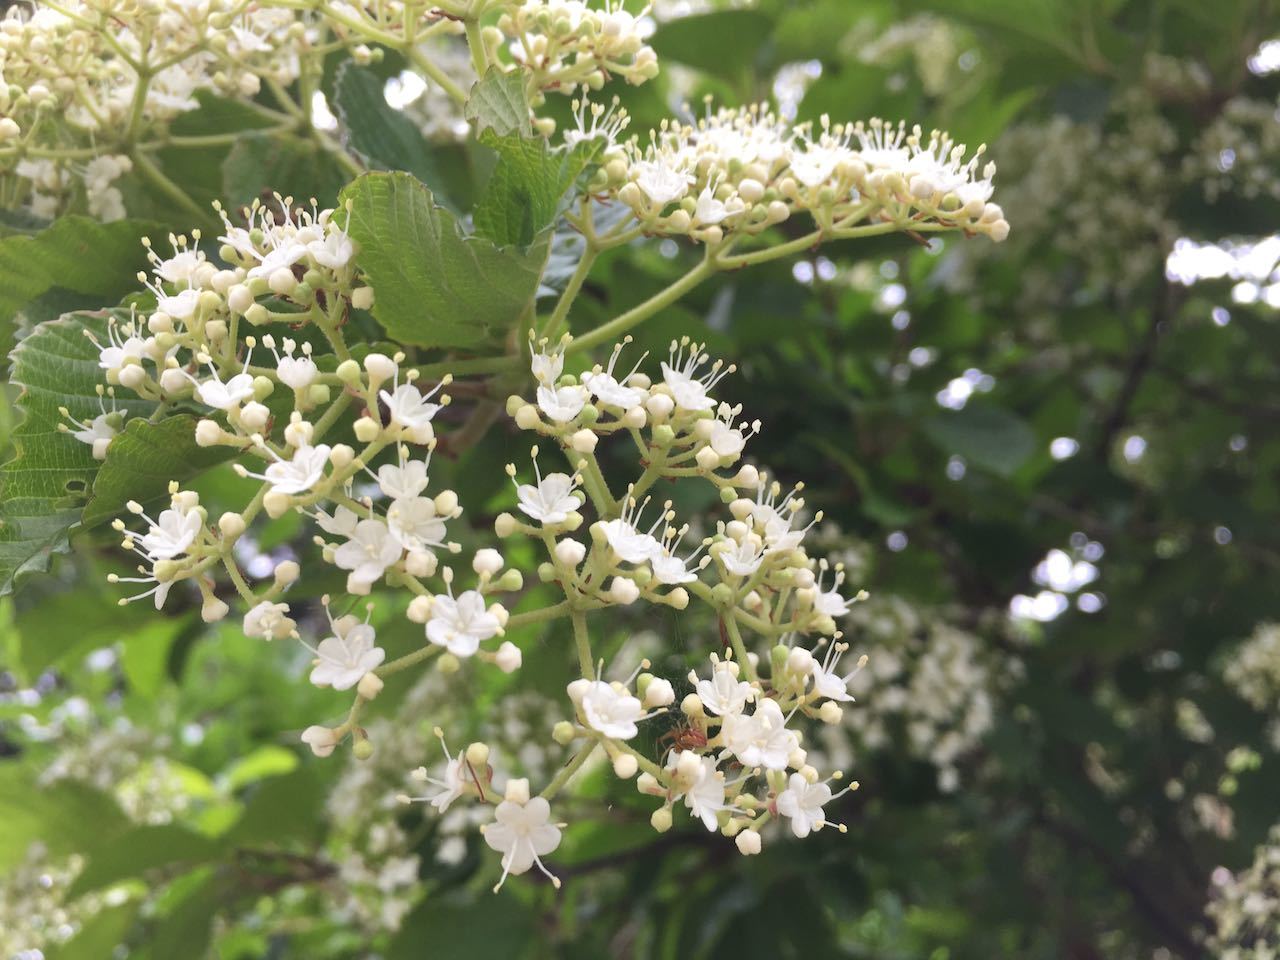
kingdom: Plantae
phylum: Tracheophyta
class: Magnoliopsida
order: Dipsacales
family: Viburnaceae
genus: Viburnum
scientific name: Viburnum dilatatum
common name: Linden arrowwood
